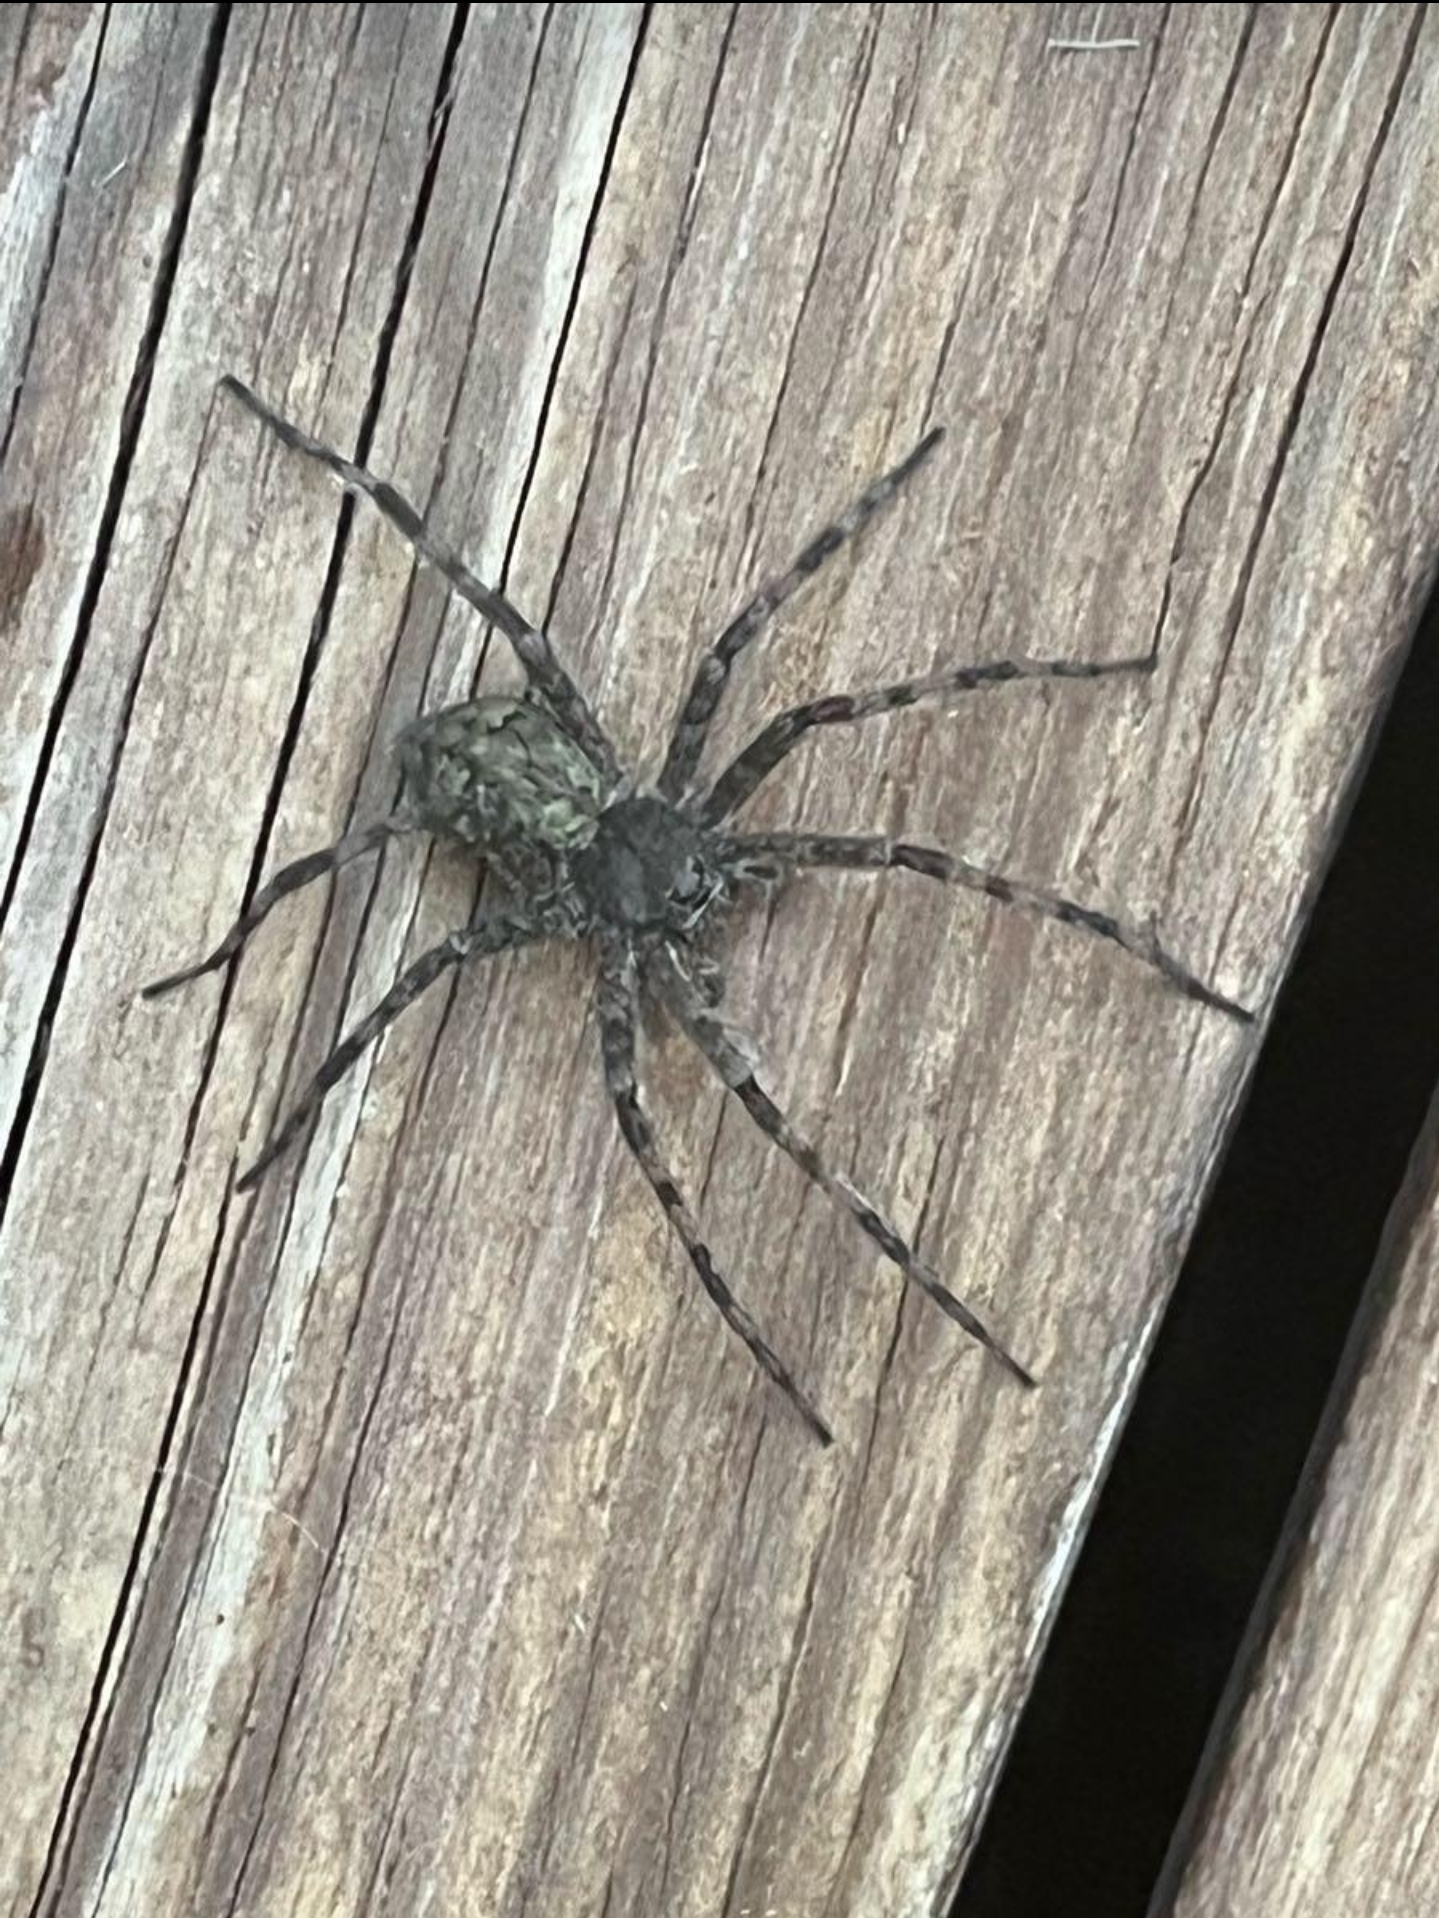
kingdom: Animalia
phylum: Arthropoda
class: Arachnida
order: Araneae
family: Pisauridae
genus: Dolomedes
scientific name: Dolomedes albineus
